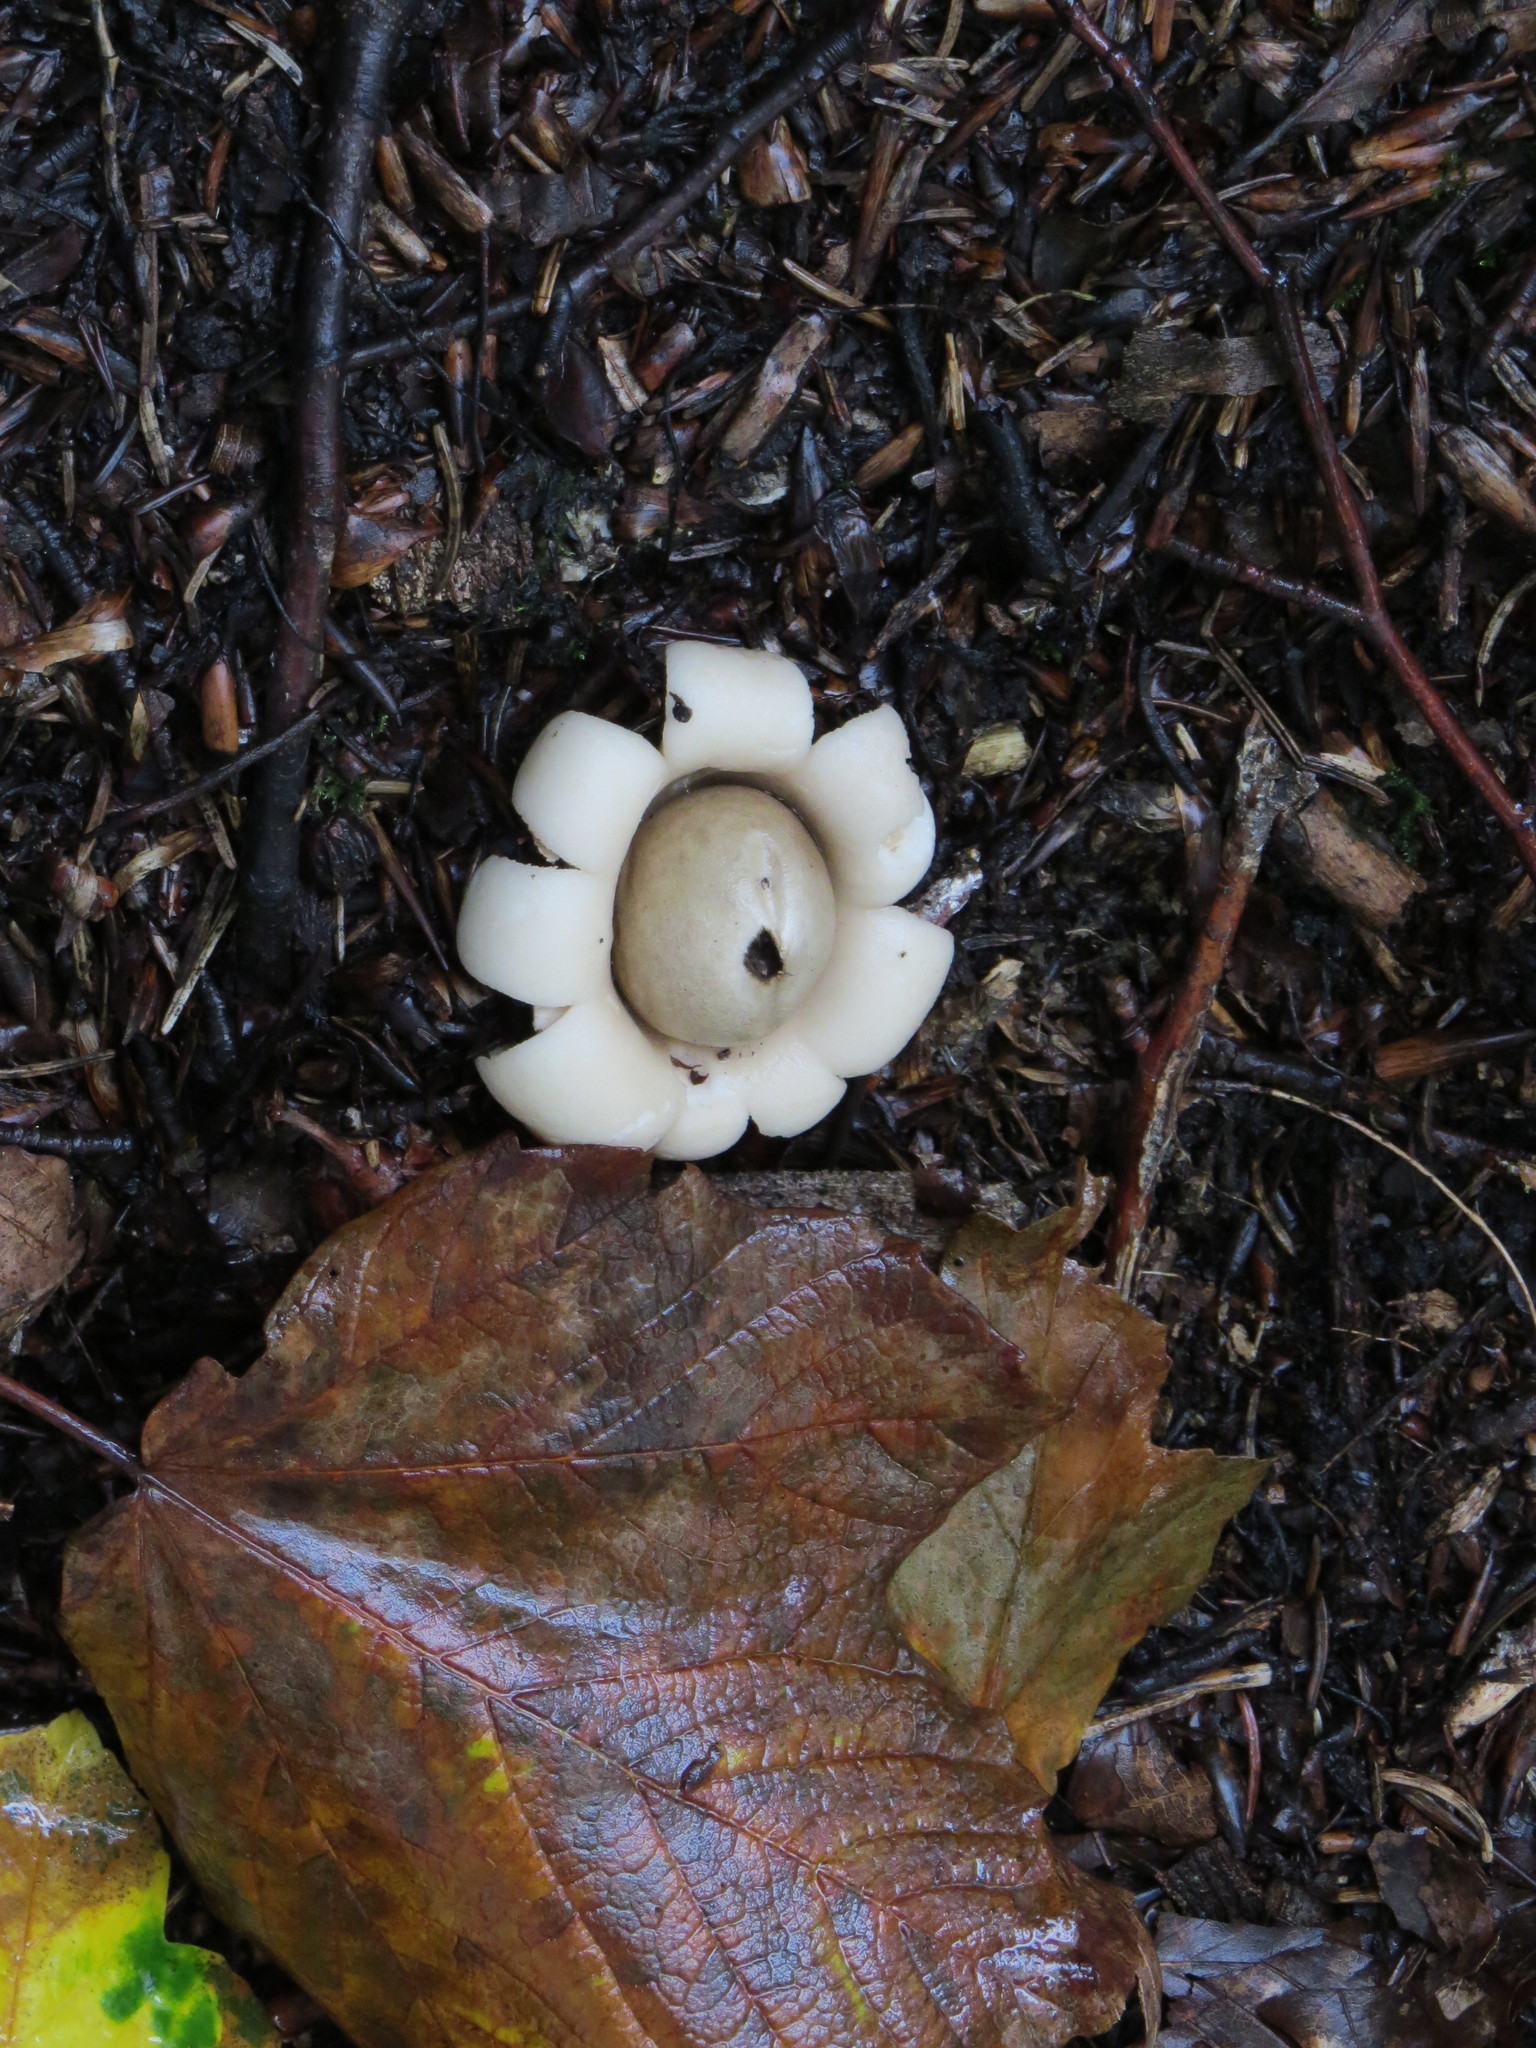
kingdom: Fungi
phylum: Basidiomycota
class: Agaricomycetes
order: Geastrales
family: Geastraceae
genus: Geastrum
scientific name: Geastrum fimbriatum
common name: Sessile earthstar
